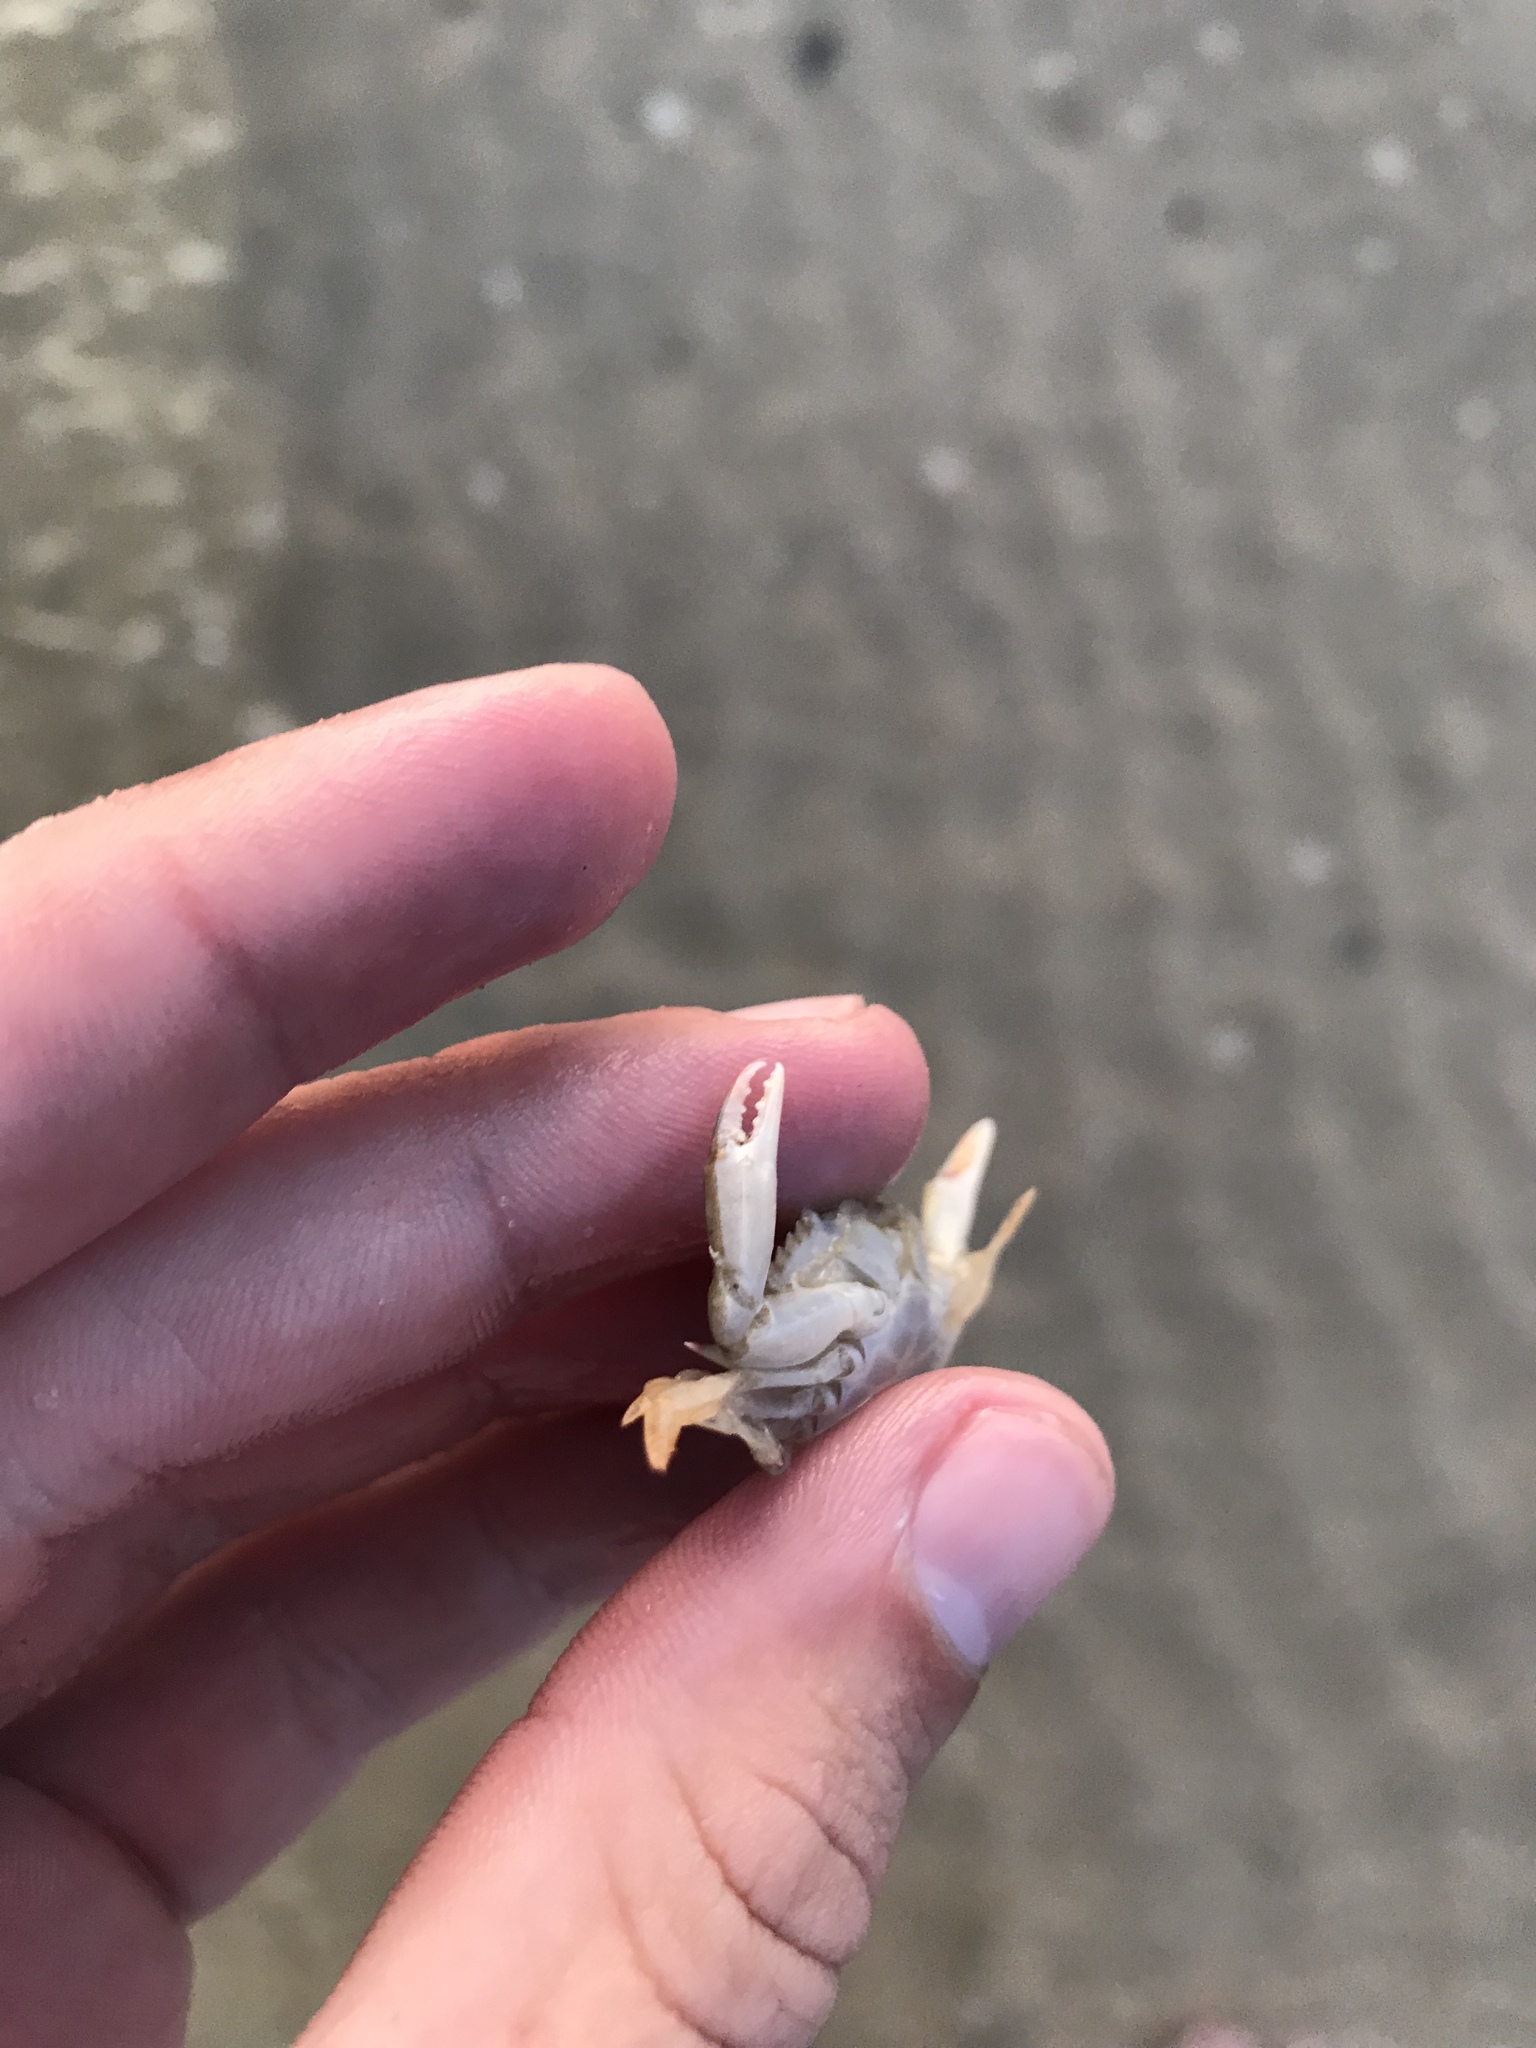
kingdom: Animalia
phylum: Arthropoda
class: Malacostraca
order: Decapoda
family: Portunidae
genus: Callinectes
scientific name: Callinectes sapidus
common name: Blue crab
